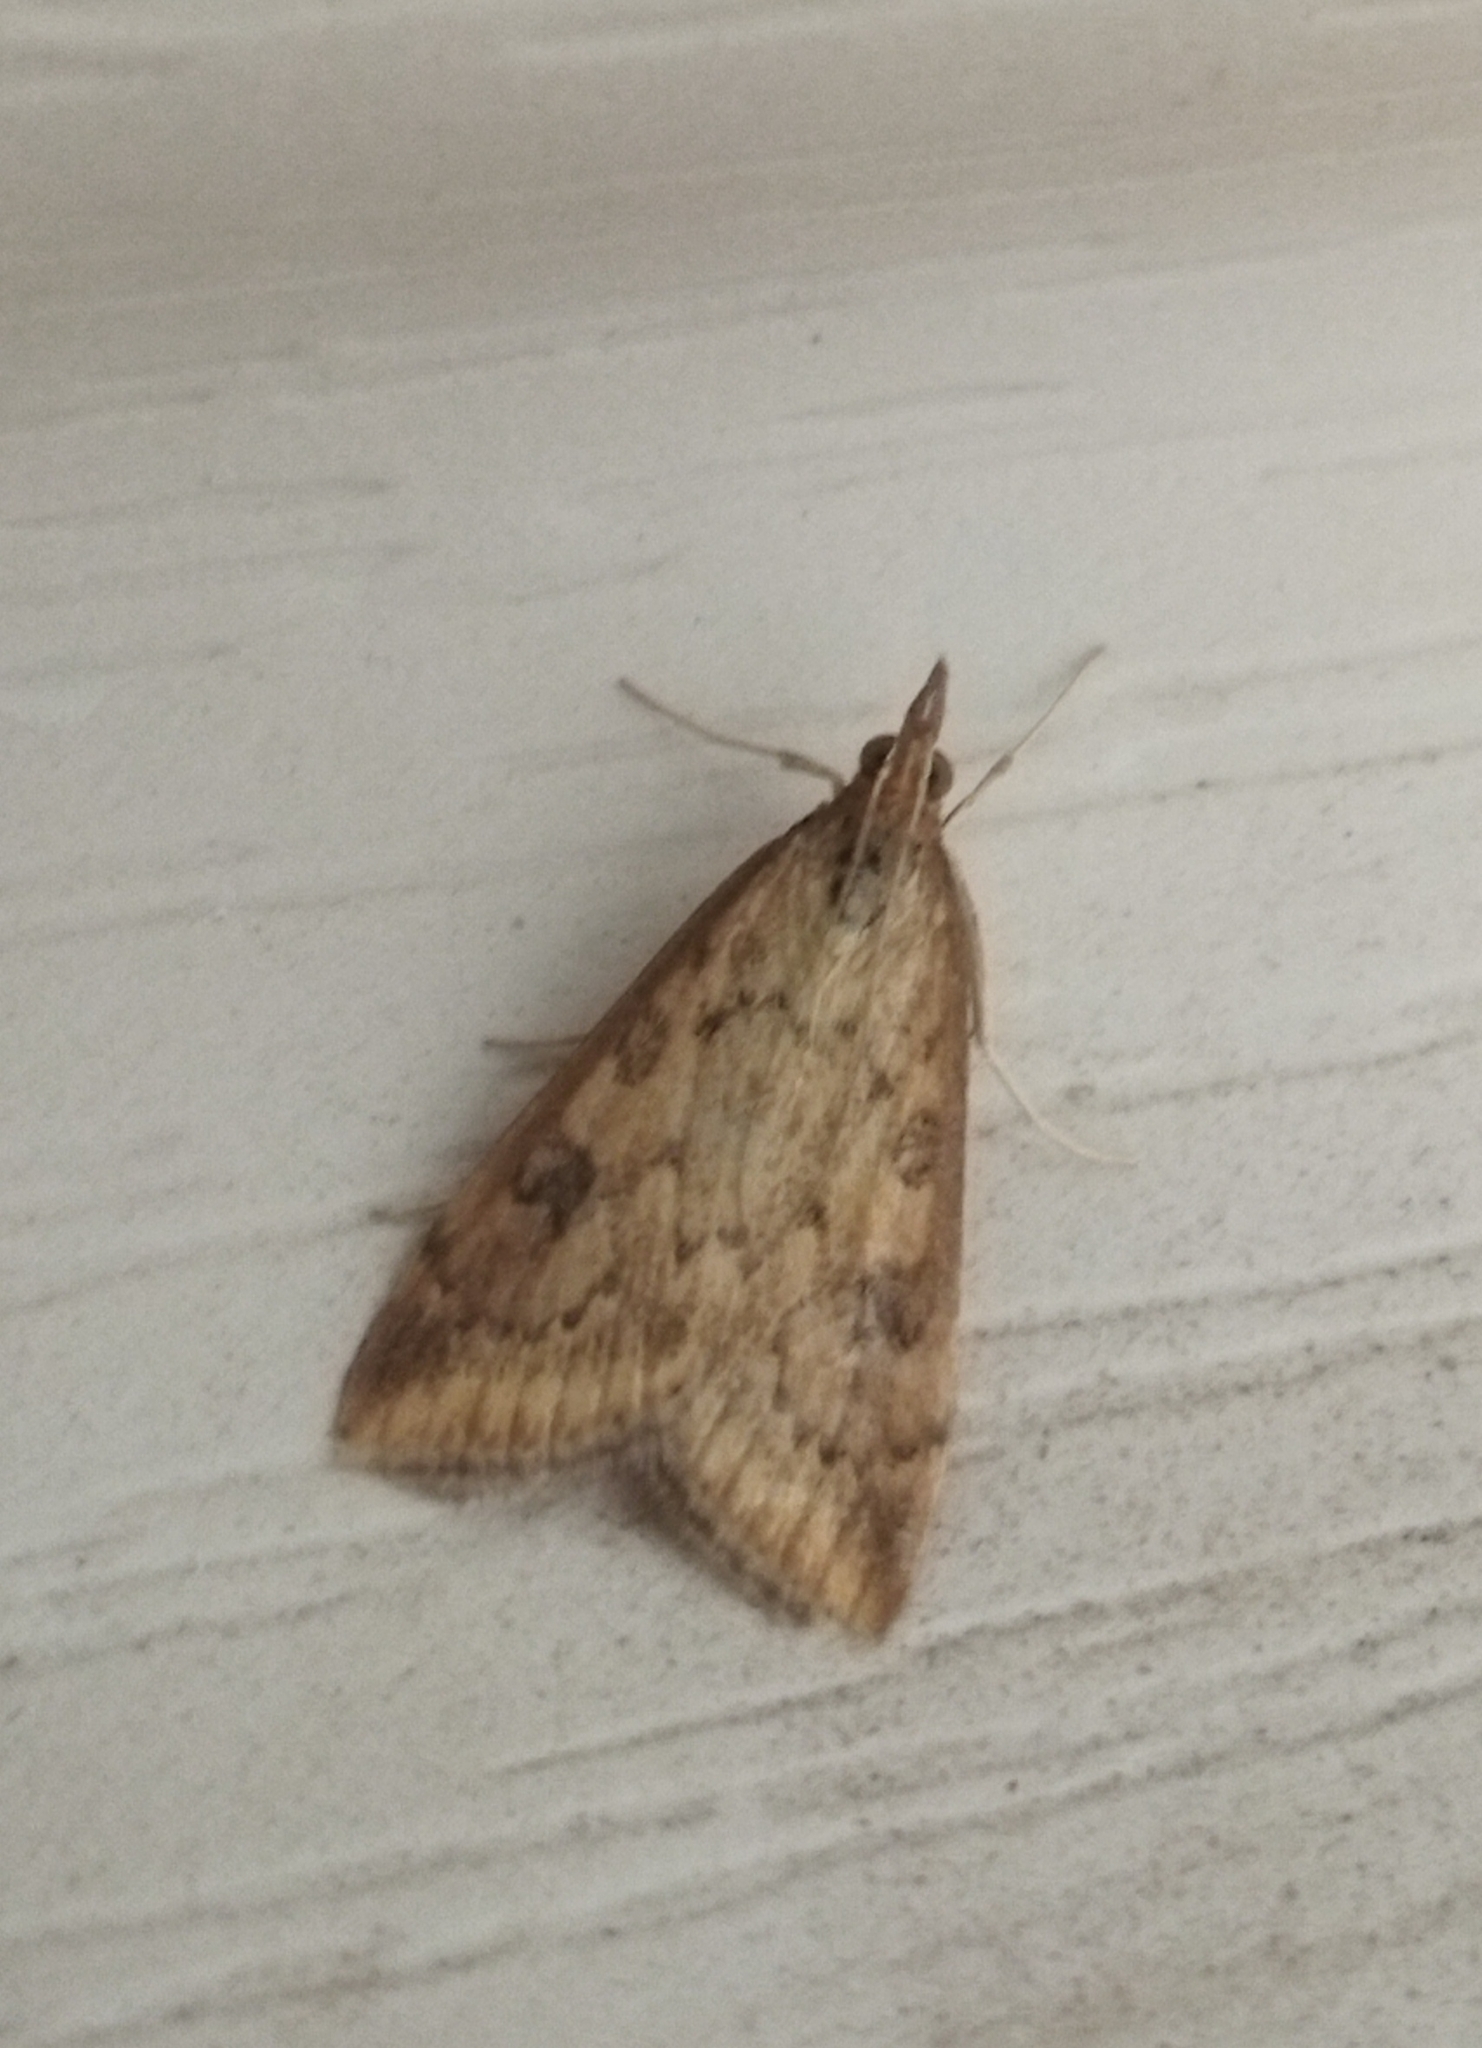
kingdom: Animalia
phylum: Arthropoda
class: Insecta
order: Lepidoptera
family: Crambidae
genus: Udea
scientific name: Udea ferrugalis
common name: Rusty dot
